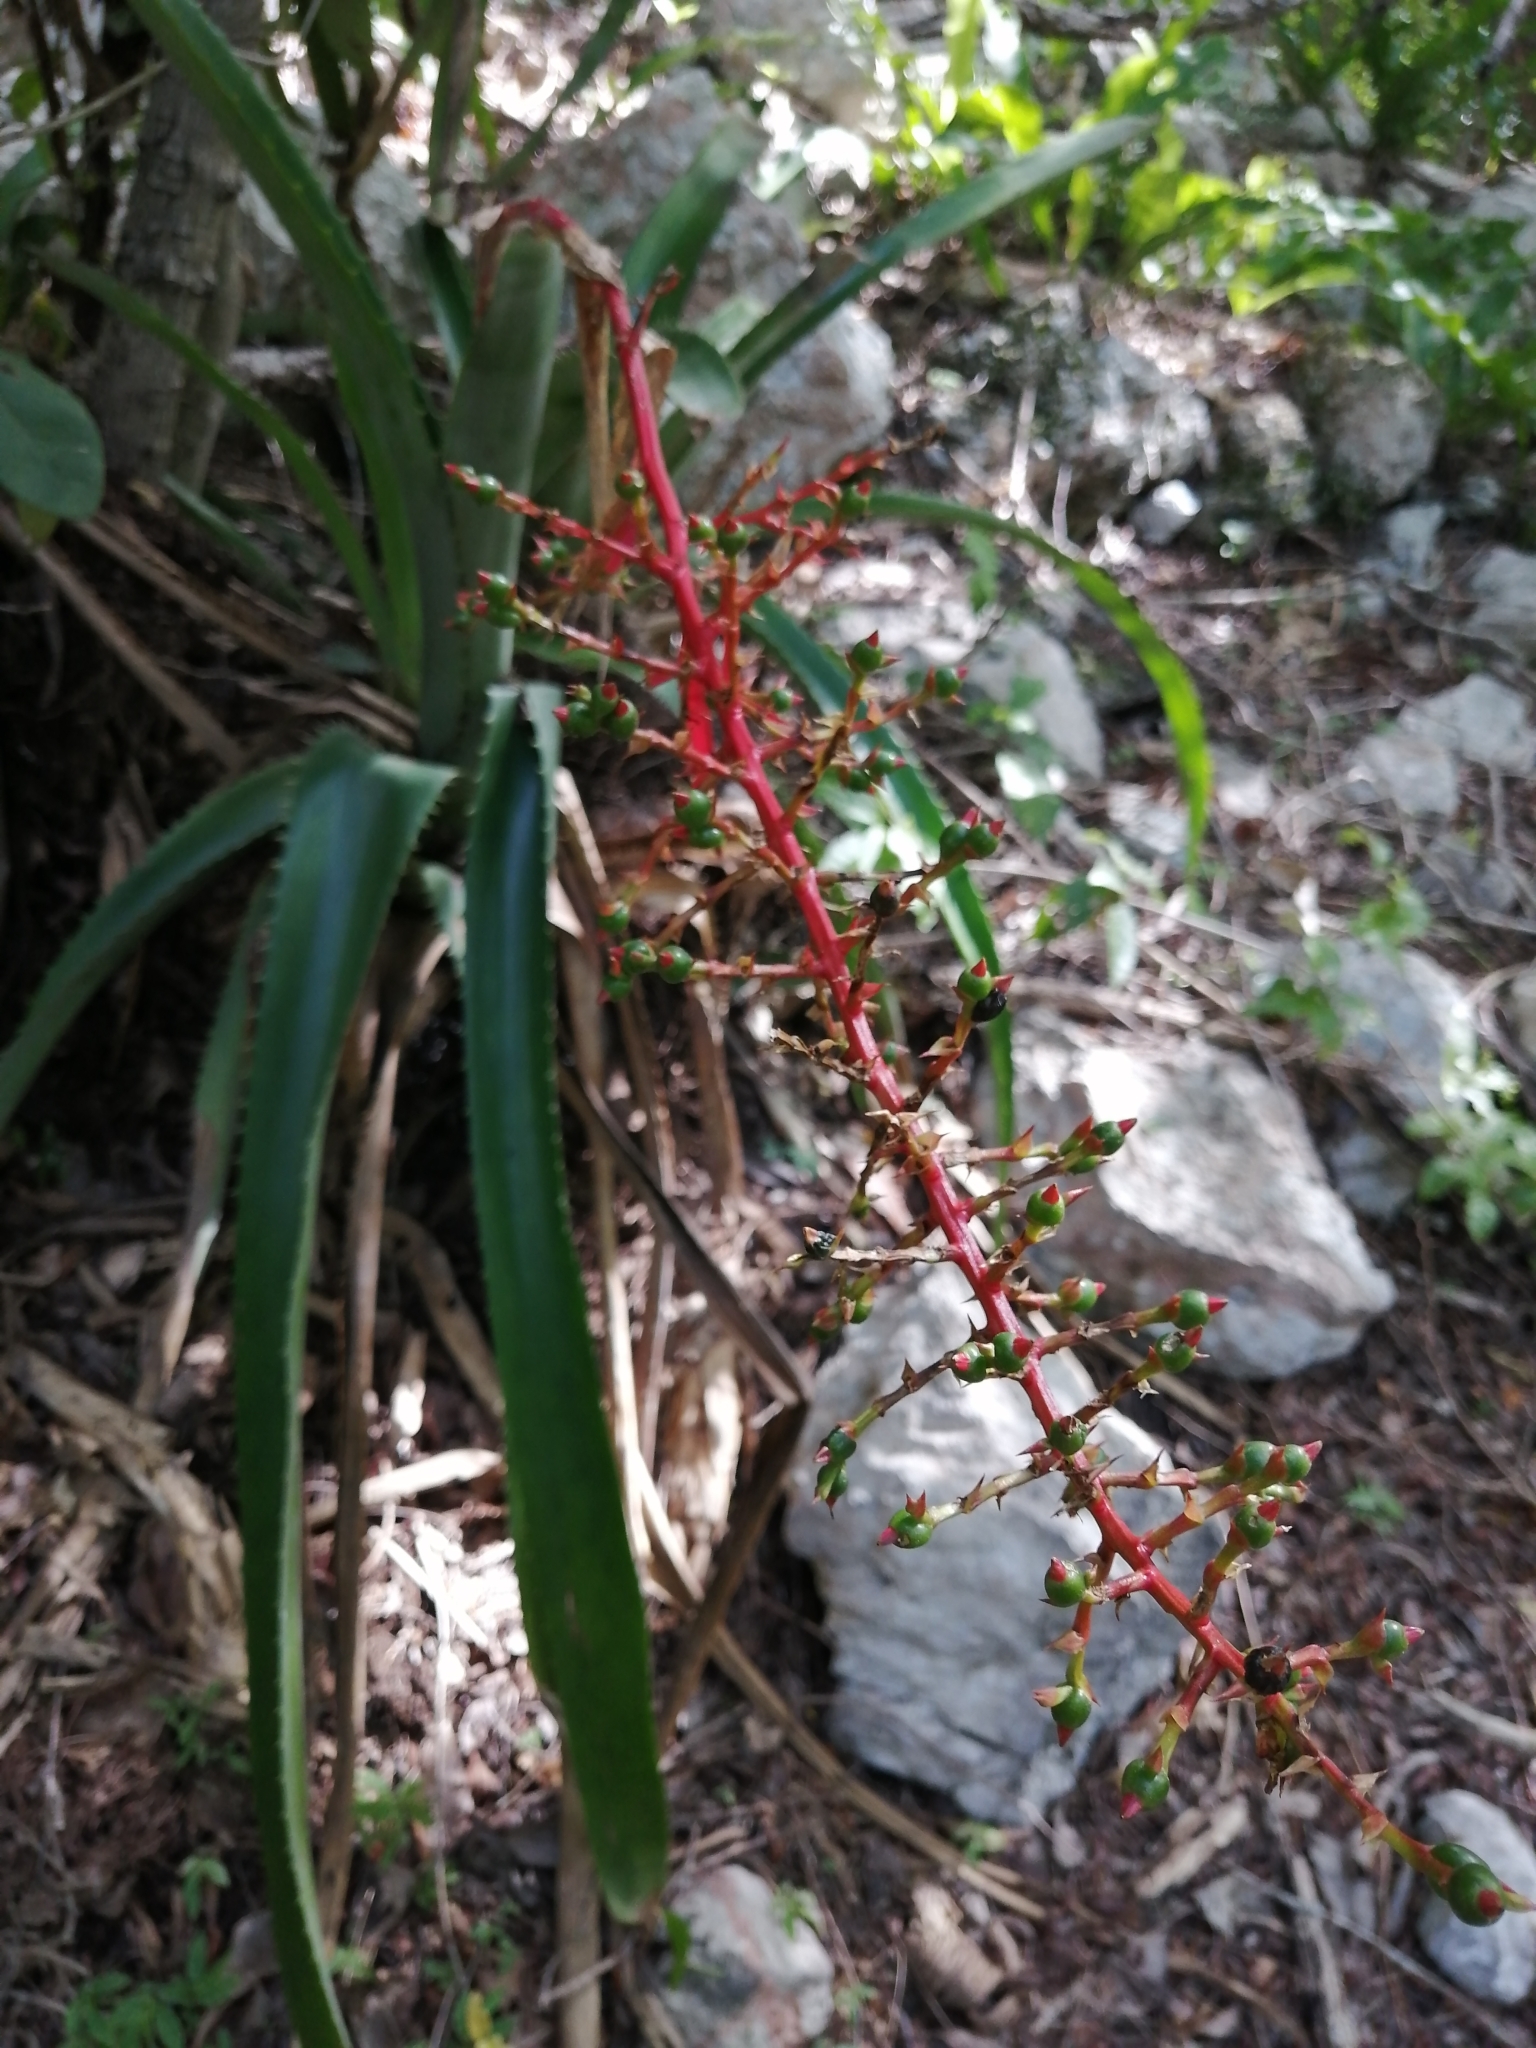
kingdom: Plantae
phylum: Tracheophyta
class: Liliopsida
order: Poales
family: Bromeliaceae
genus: Aechmea
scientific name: Aechmea bracteata
